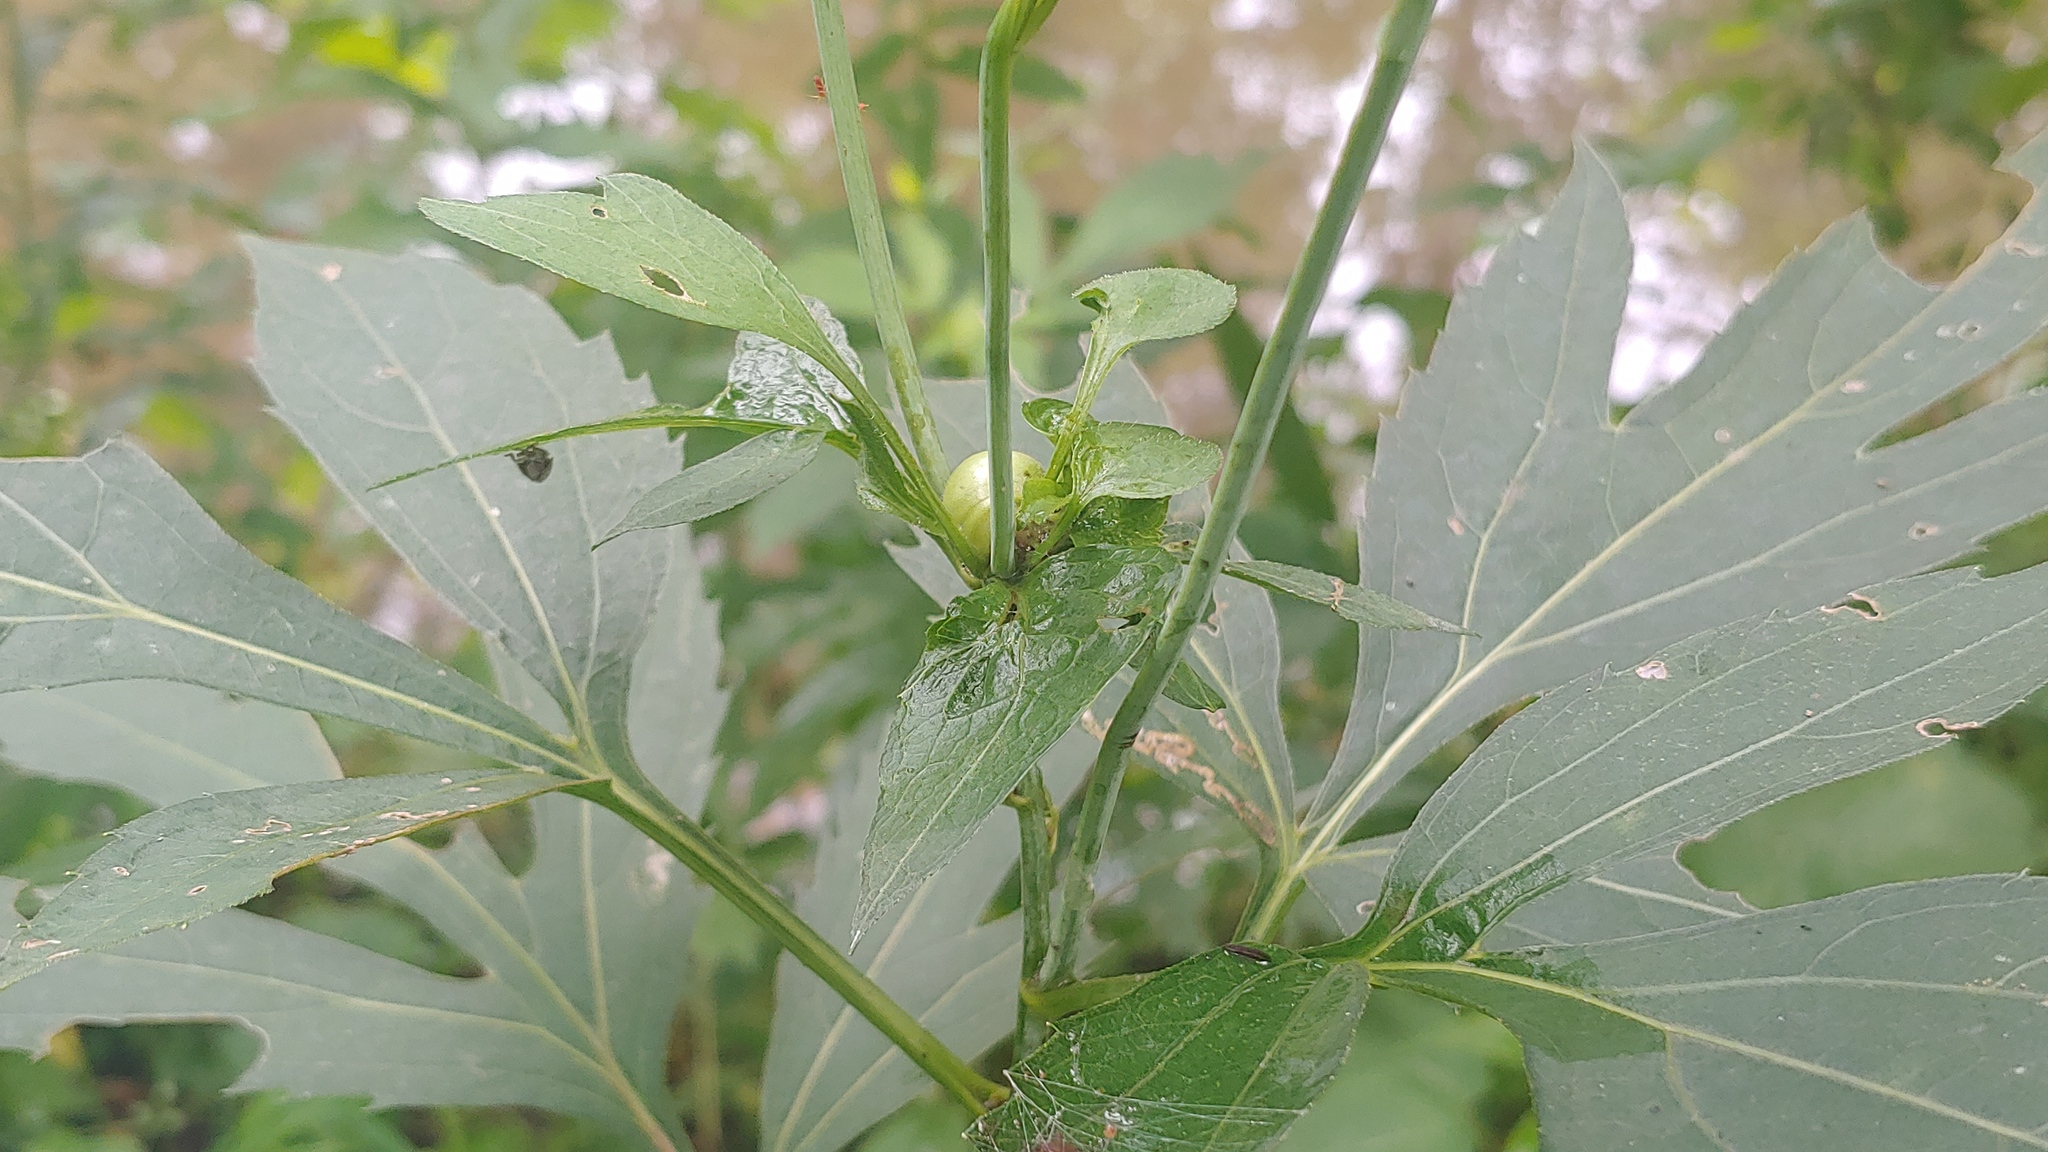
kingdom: Animalia
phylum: Arthropoda
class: Insecta
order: Diptera
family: Cecidomyiidae
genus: Asphondylia
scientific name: Asphondylia rudbeckiaeconspicua
